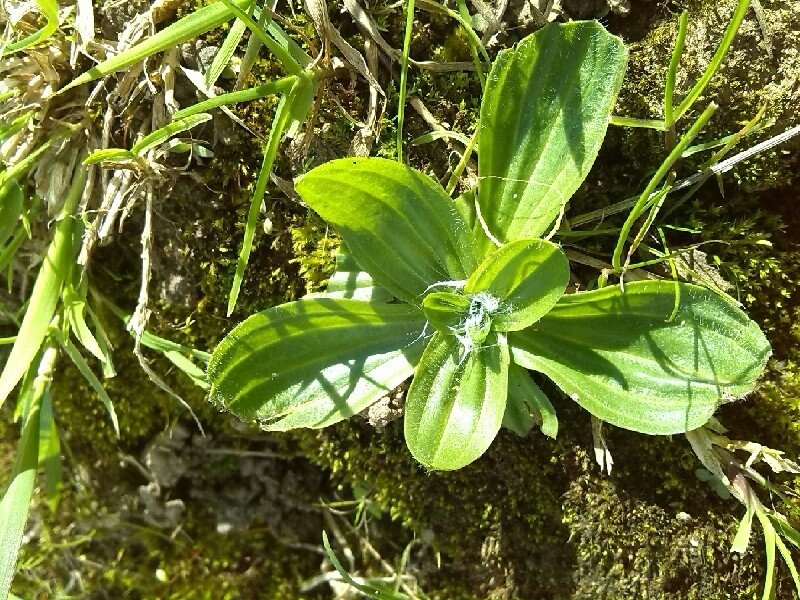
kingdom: Plantae
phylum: Tracheophyta
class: Magnoliopsida
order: Lamiales
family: Plantaginaceae
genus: Plantago
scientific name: Plantago media
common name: Hoary plantain
